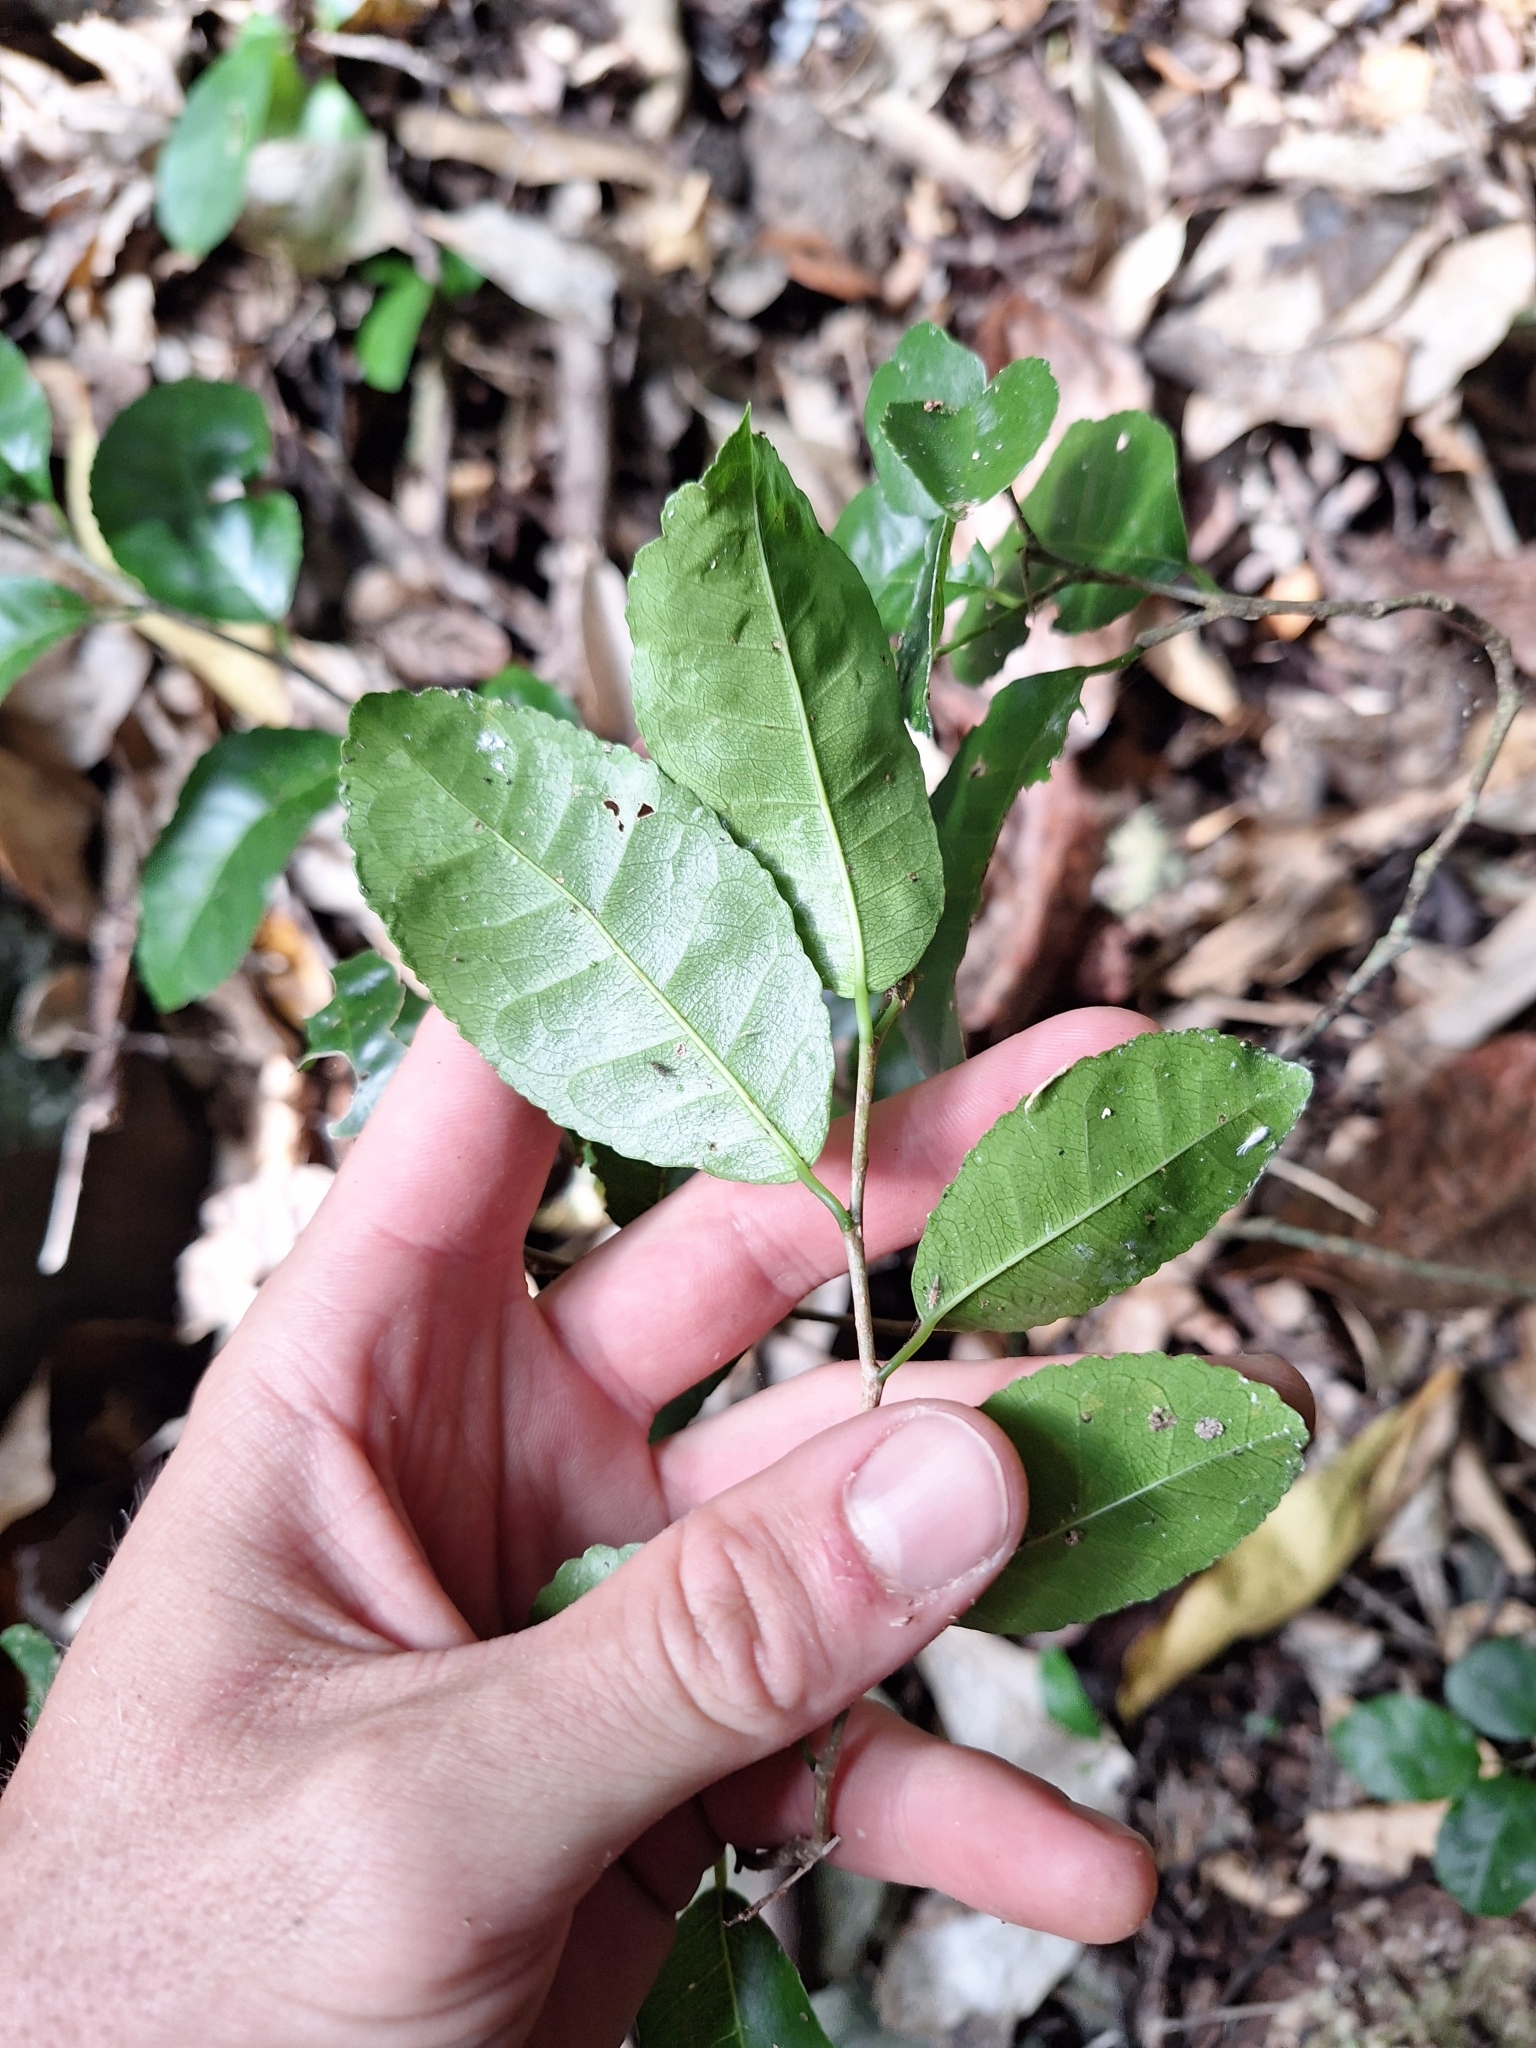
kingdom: Plantae
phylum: Tracheophyta
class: Magnoliopsida
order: Rosales
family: Moraceae
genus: Paratrophis
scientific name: Paratrophis banksii
